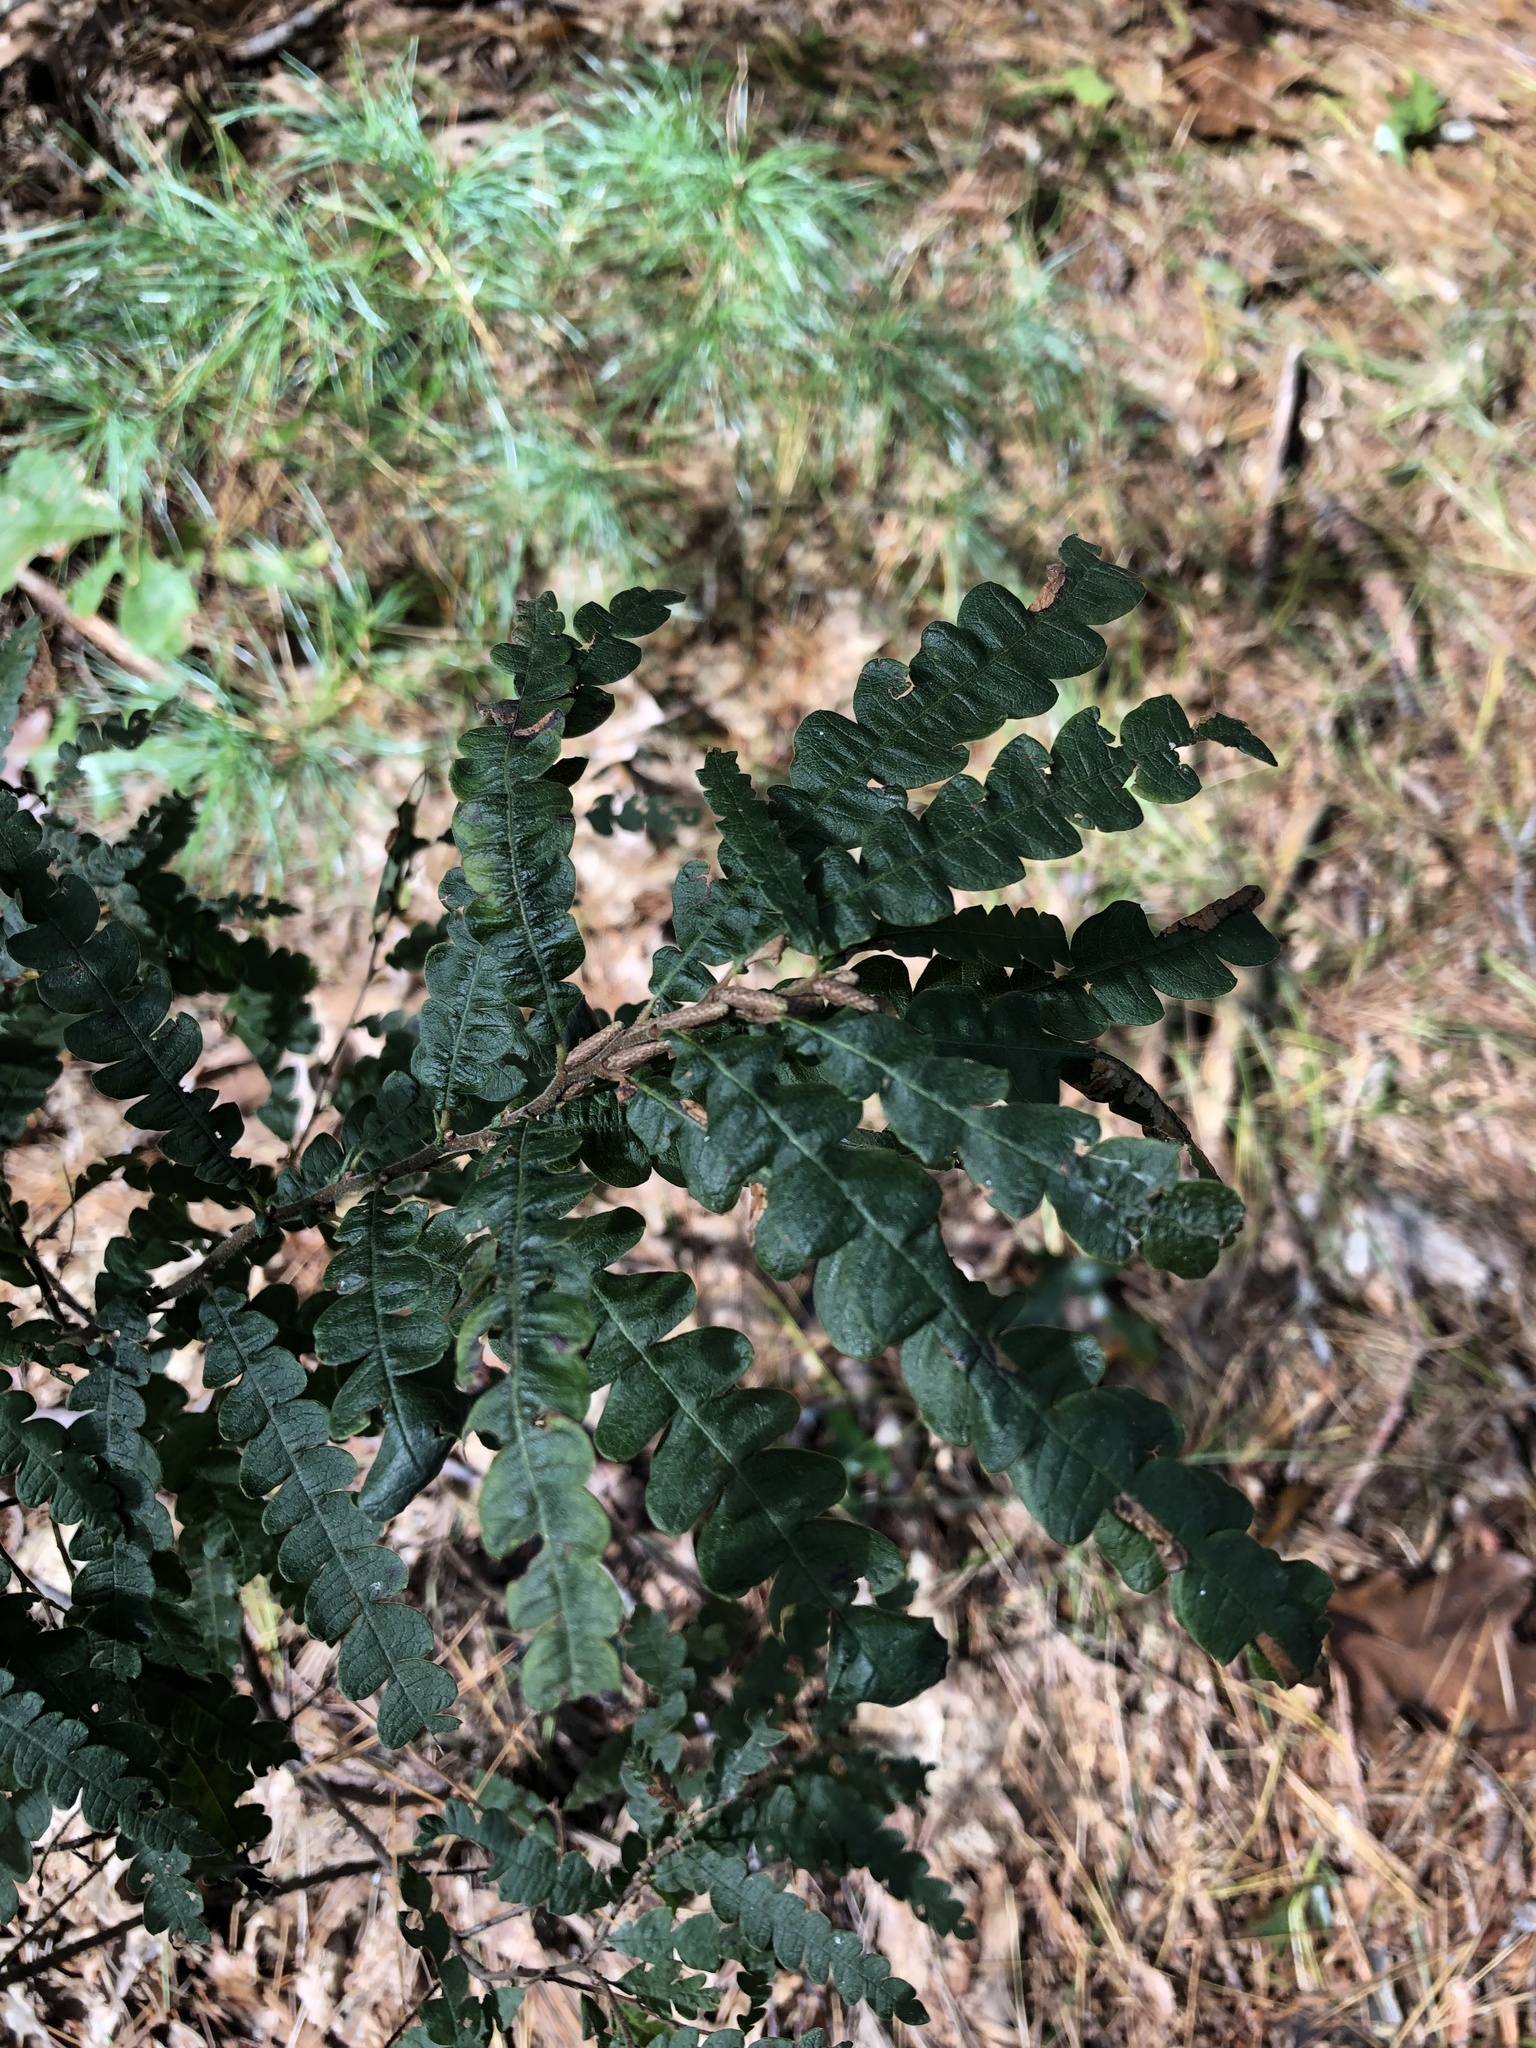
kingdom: Plantae
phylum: Tracheophyta
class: Magnoliopsida
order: Fagales
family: Myricaceae
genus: Comptonia
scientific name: Comptonia peregrina
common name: Sweet-fern
